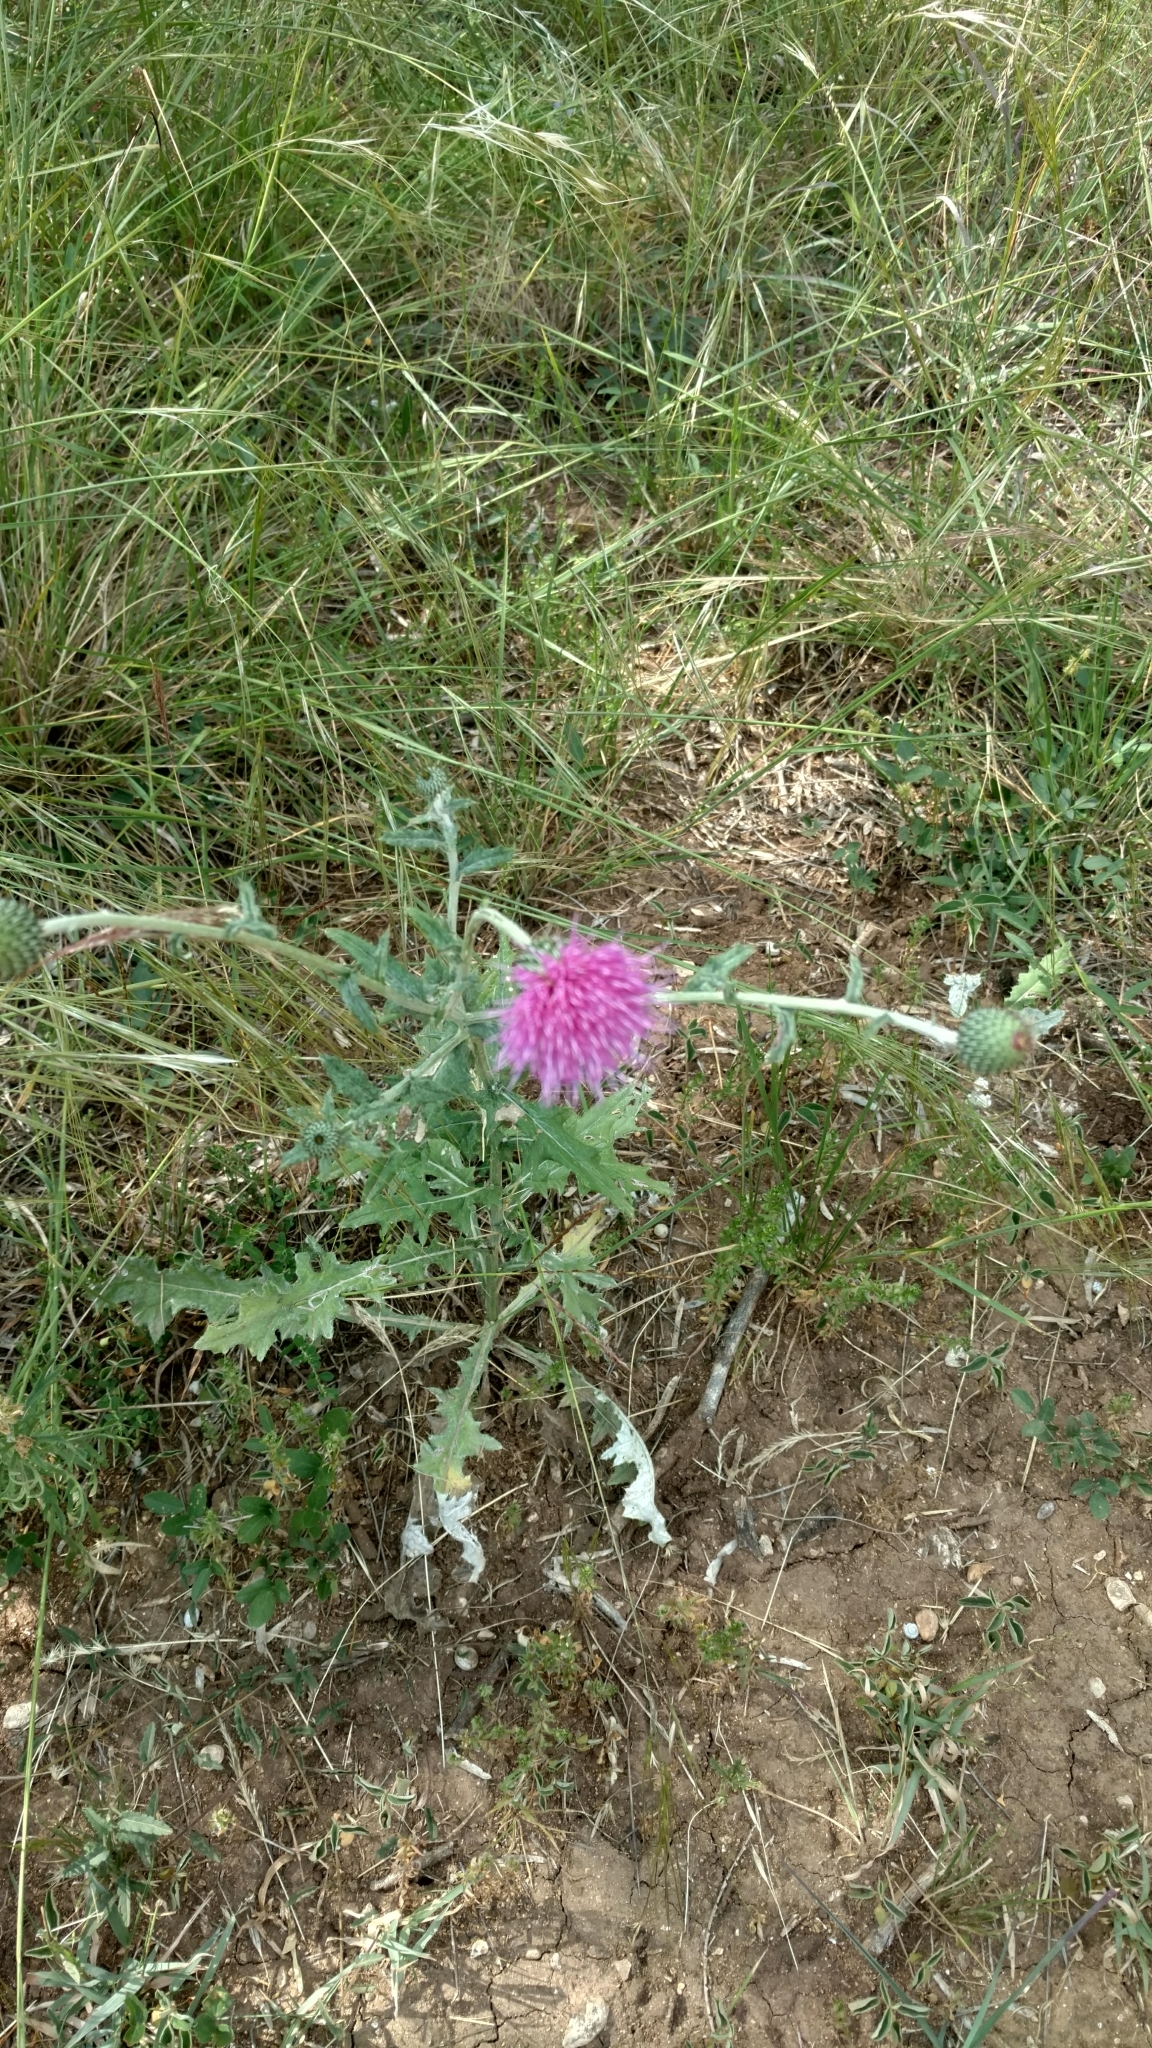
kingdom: Plantae
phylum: Tracheophyta
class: Magnoliopsida
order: Asterales
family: Asteraceae
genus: Cirsium
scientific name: Cirsium texanum
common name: Texas purple thistle
